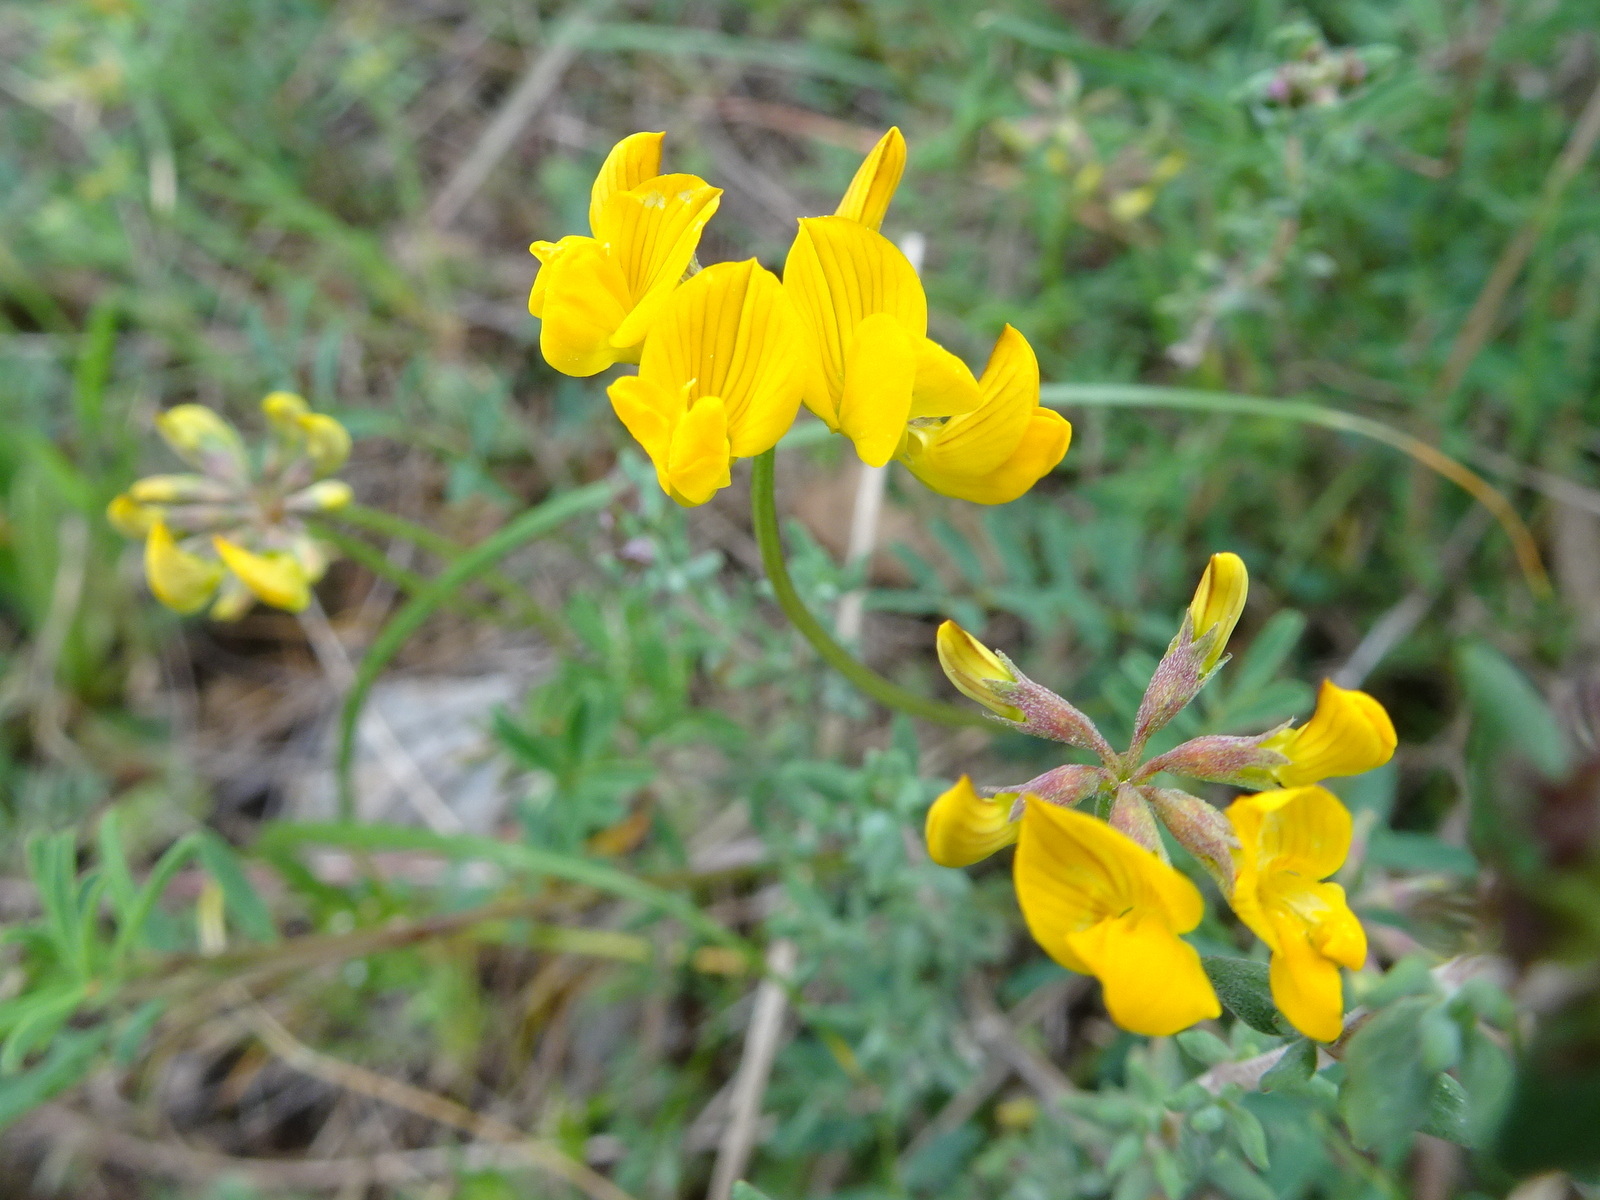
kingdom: Plantae
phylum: Tracheophyta
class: Magnoliopsida
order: Fabales
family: Fabaceae
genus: Hippocrepis
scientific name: Hippocrepis comosa
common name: Horseshoe vetch
